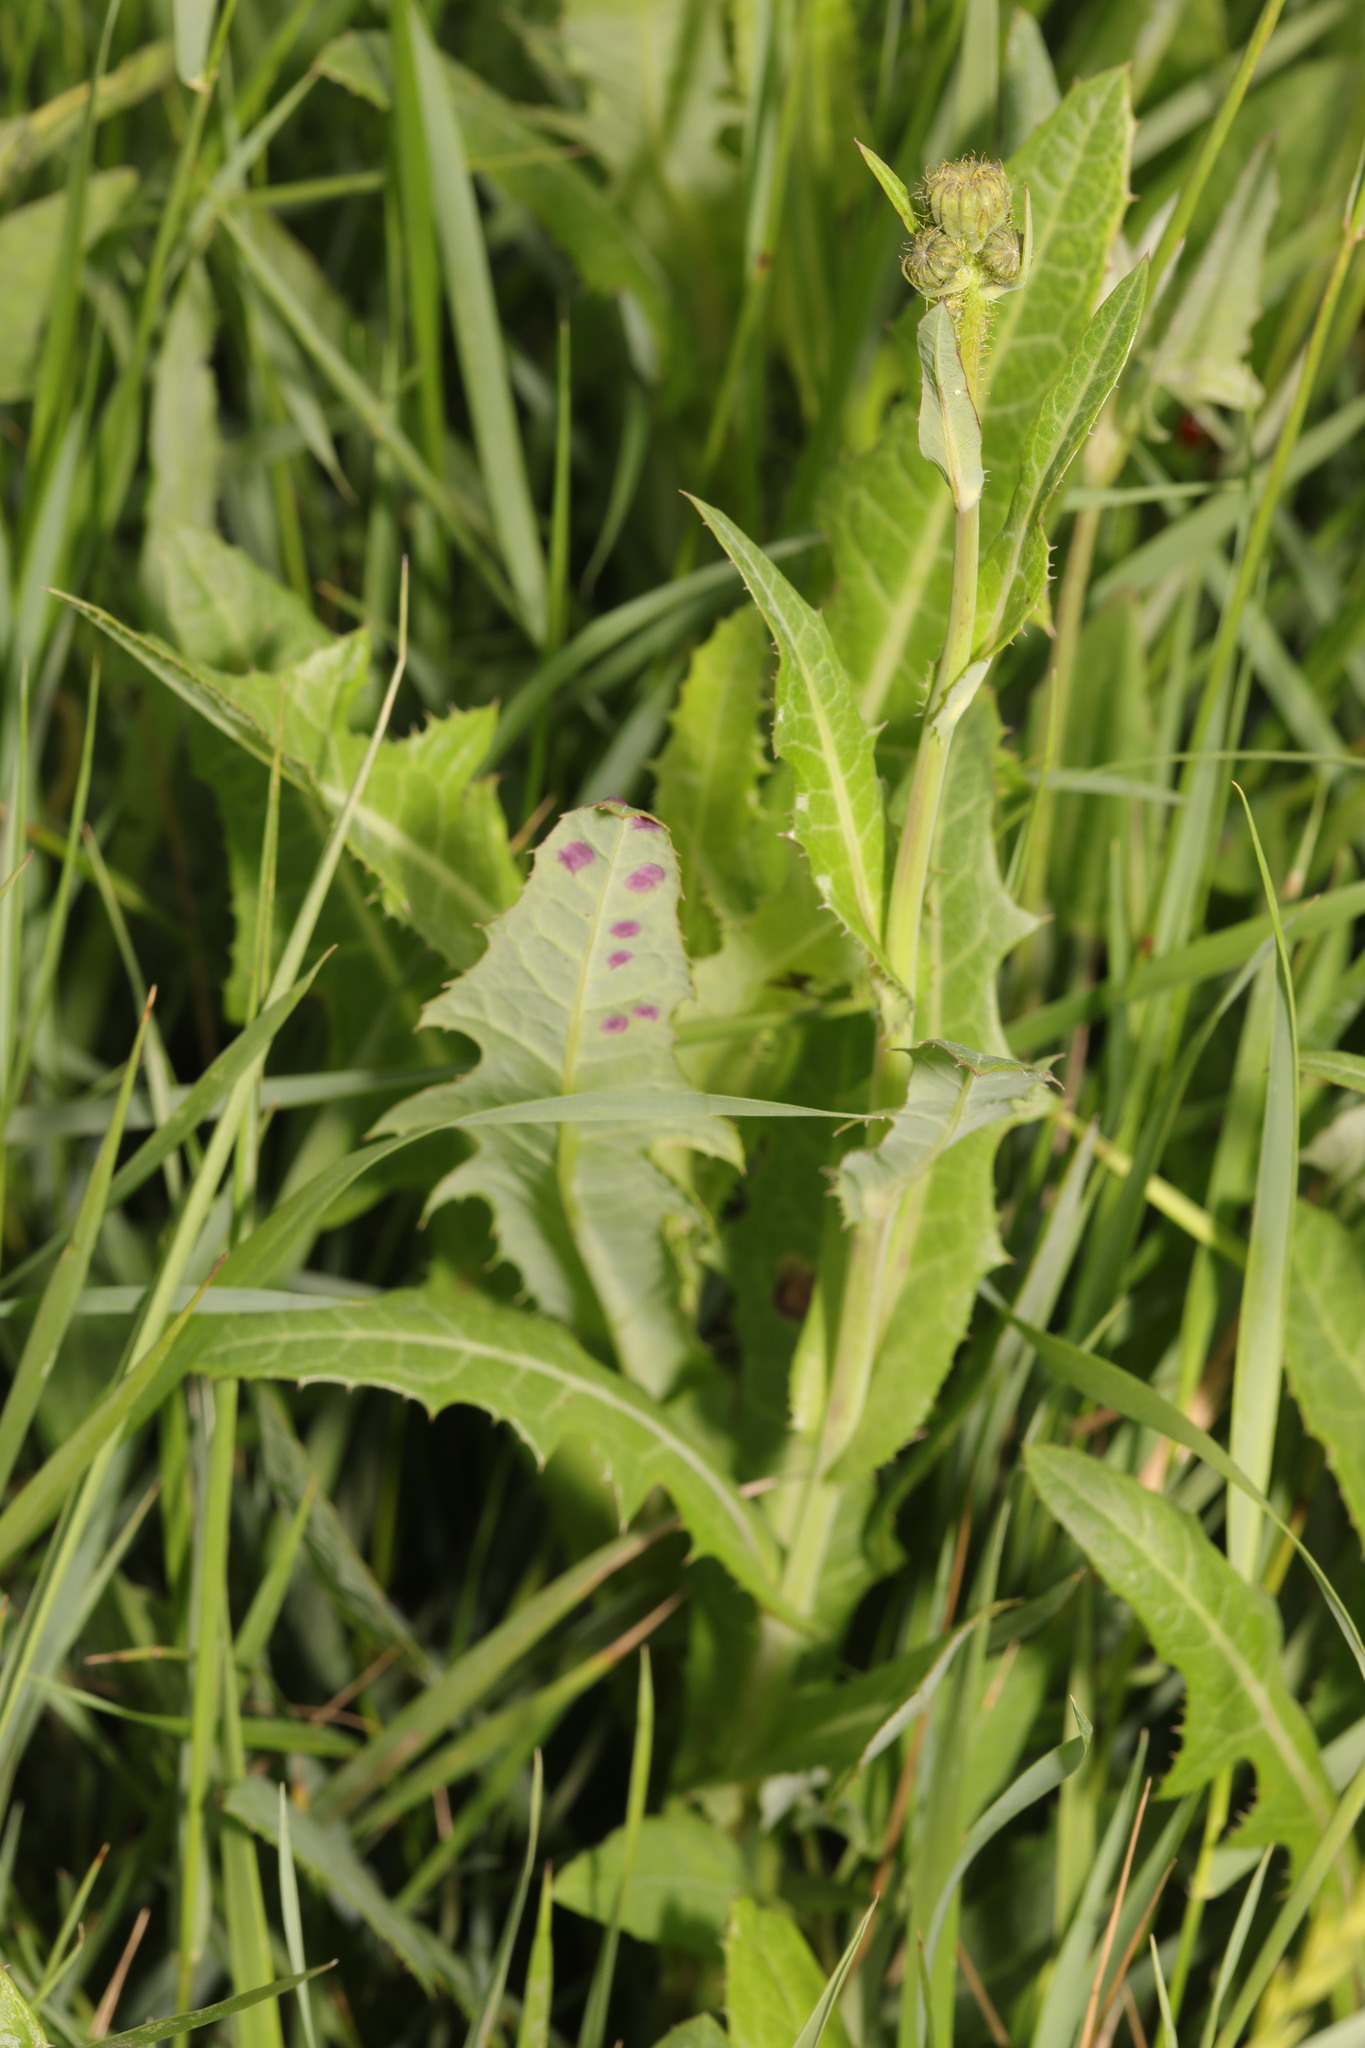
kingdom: Plantae
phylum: Tracheophyta
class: Magnoliopsida
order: Asterales
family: Asteraceae
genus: Sonchus
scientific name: Sonchus arvensis
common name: Perennial sow-thistle
